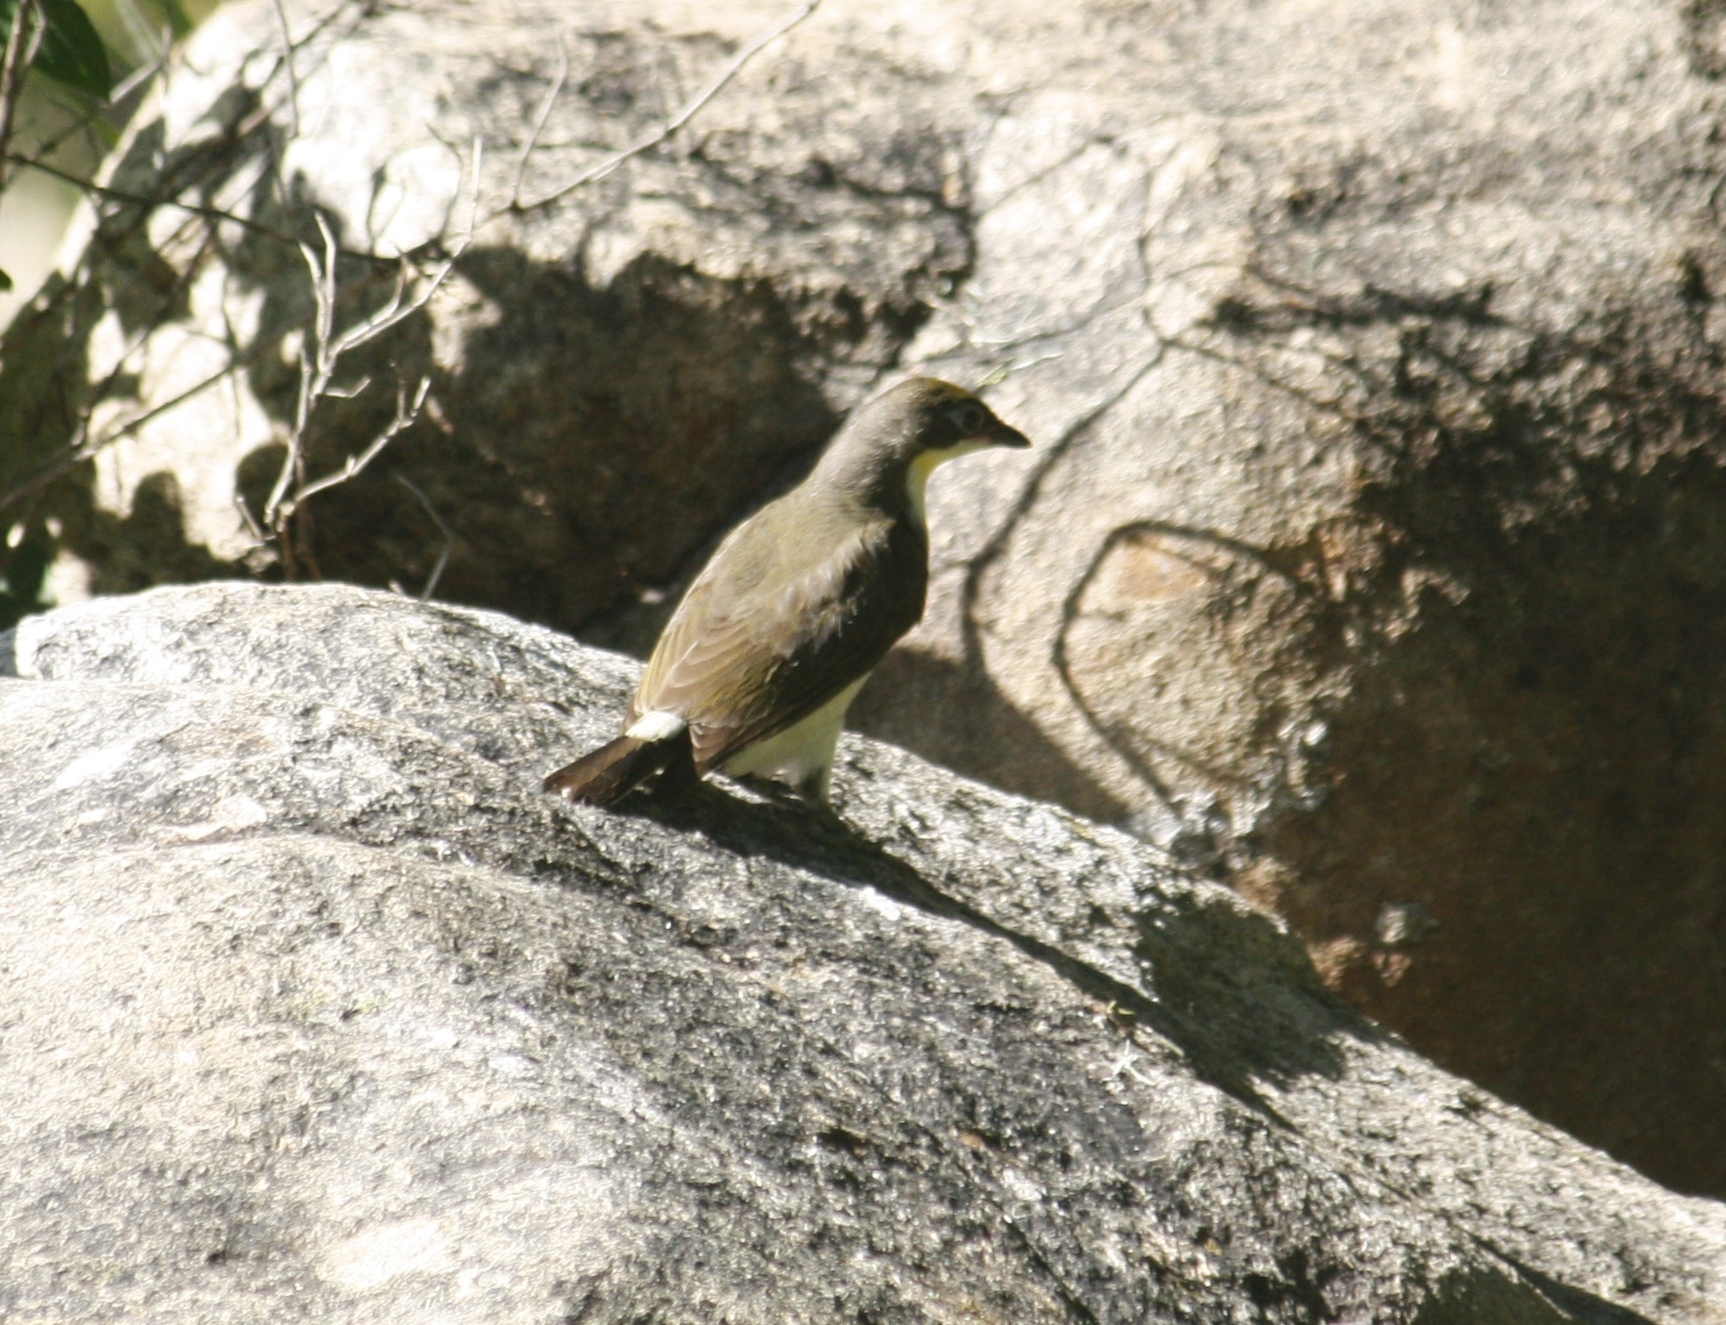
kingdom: Animalia
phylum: Chordata
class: Aves
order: Piciformes
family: Indicatoridae
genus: Indicator
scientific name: Indicator indicator
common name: Greater honeyguide
